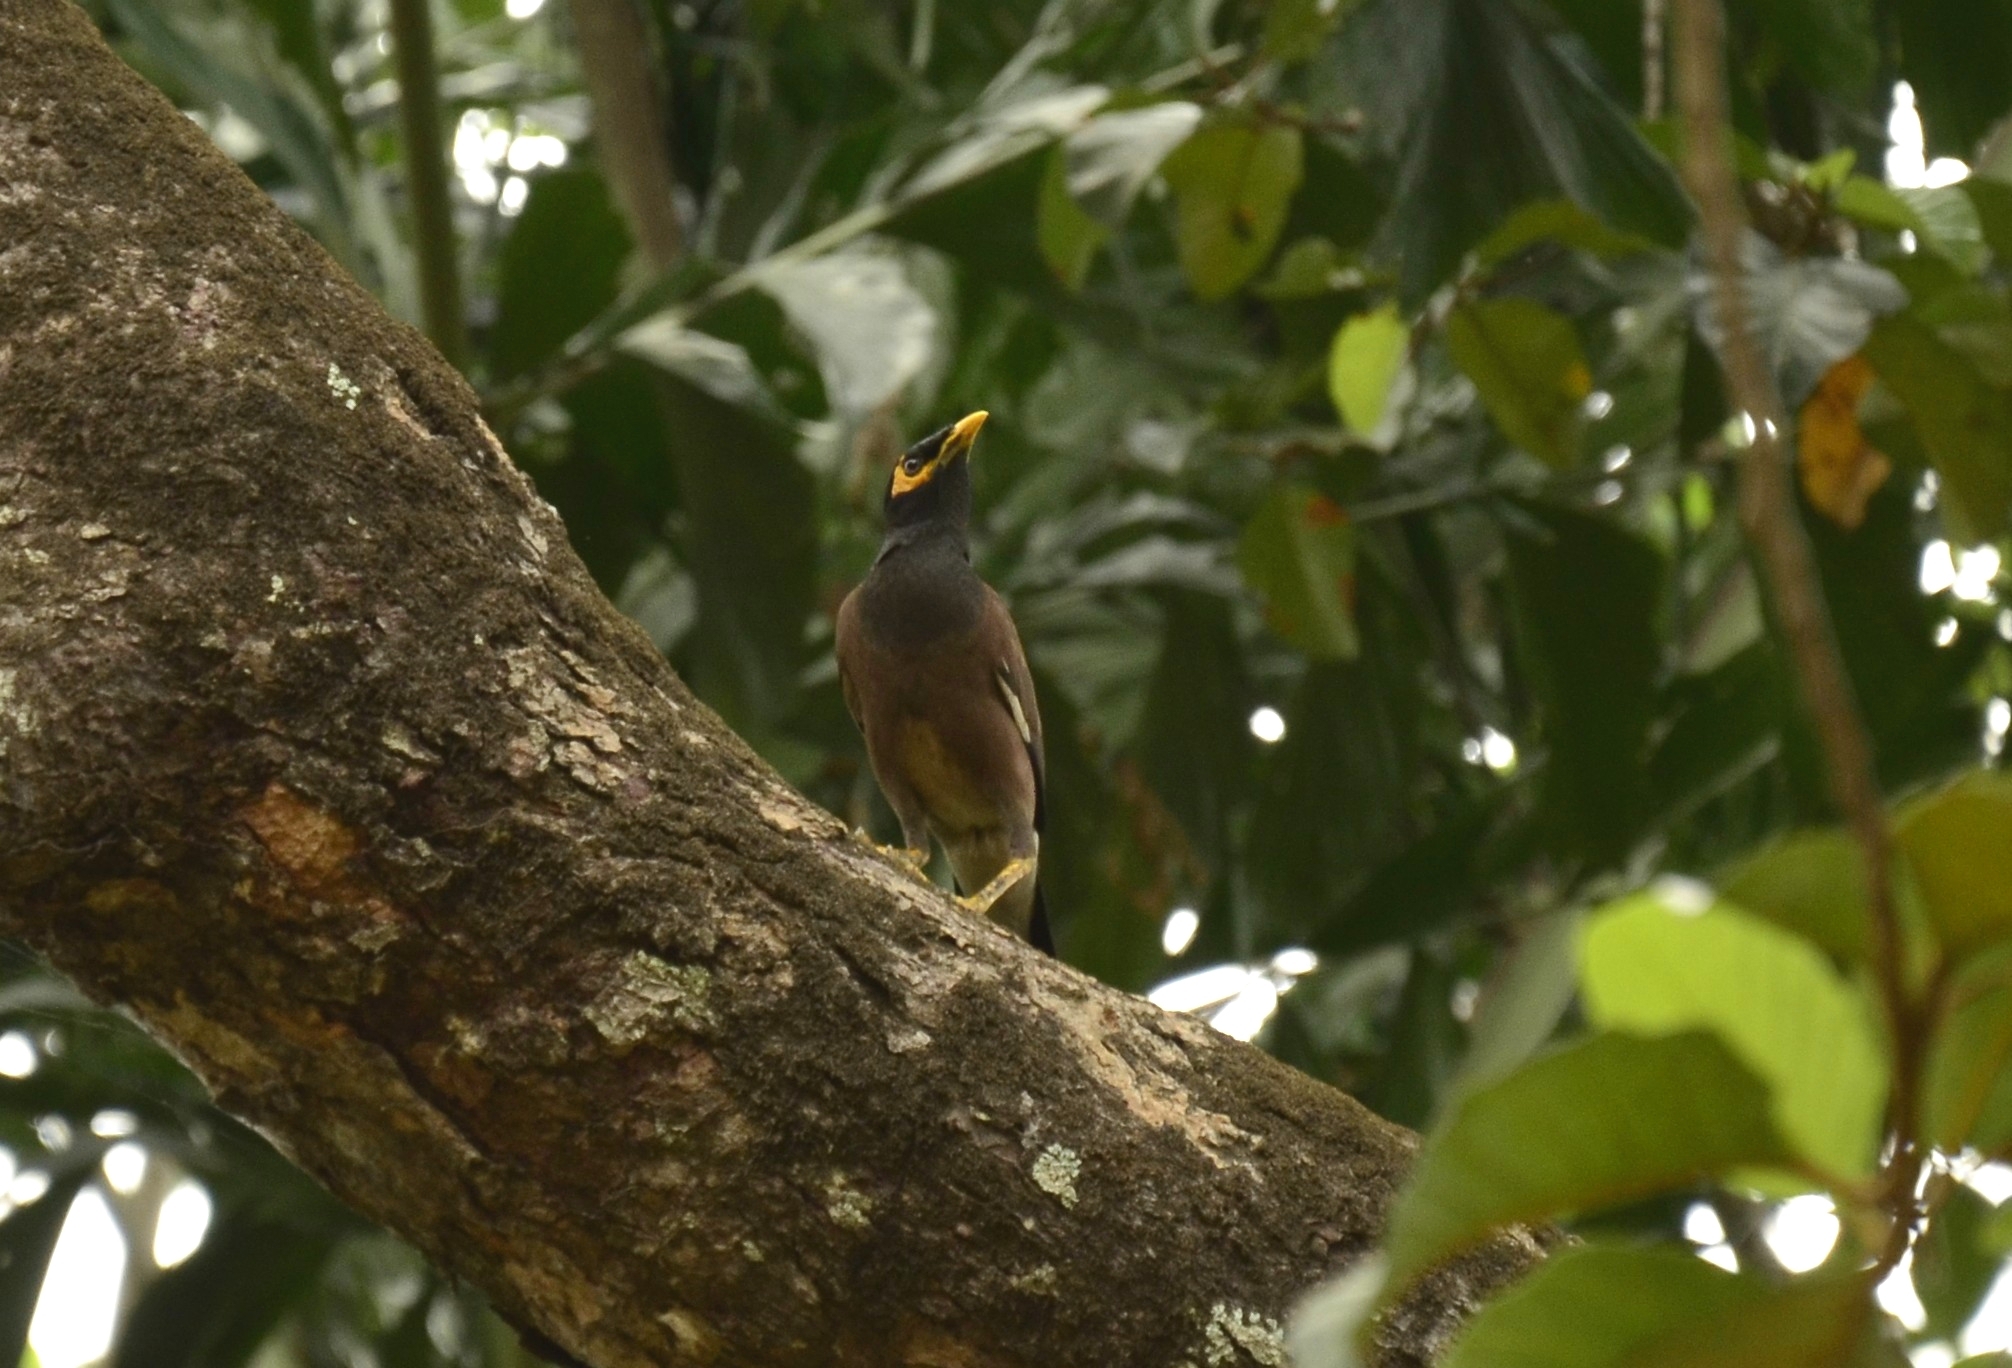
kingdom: Animalia
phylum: Chordata
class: Aves
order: Passeriformes
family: Sturnidae
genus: Acridotheres
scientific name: Acridotheres tristis
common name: Common myna
